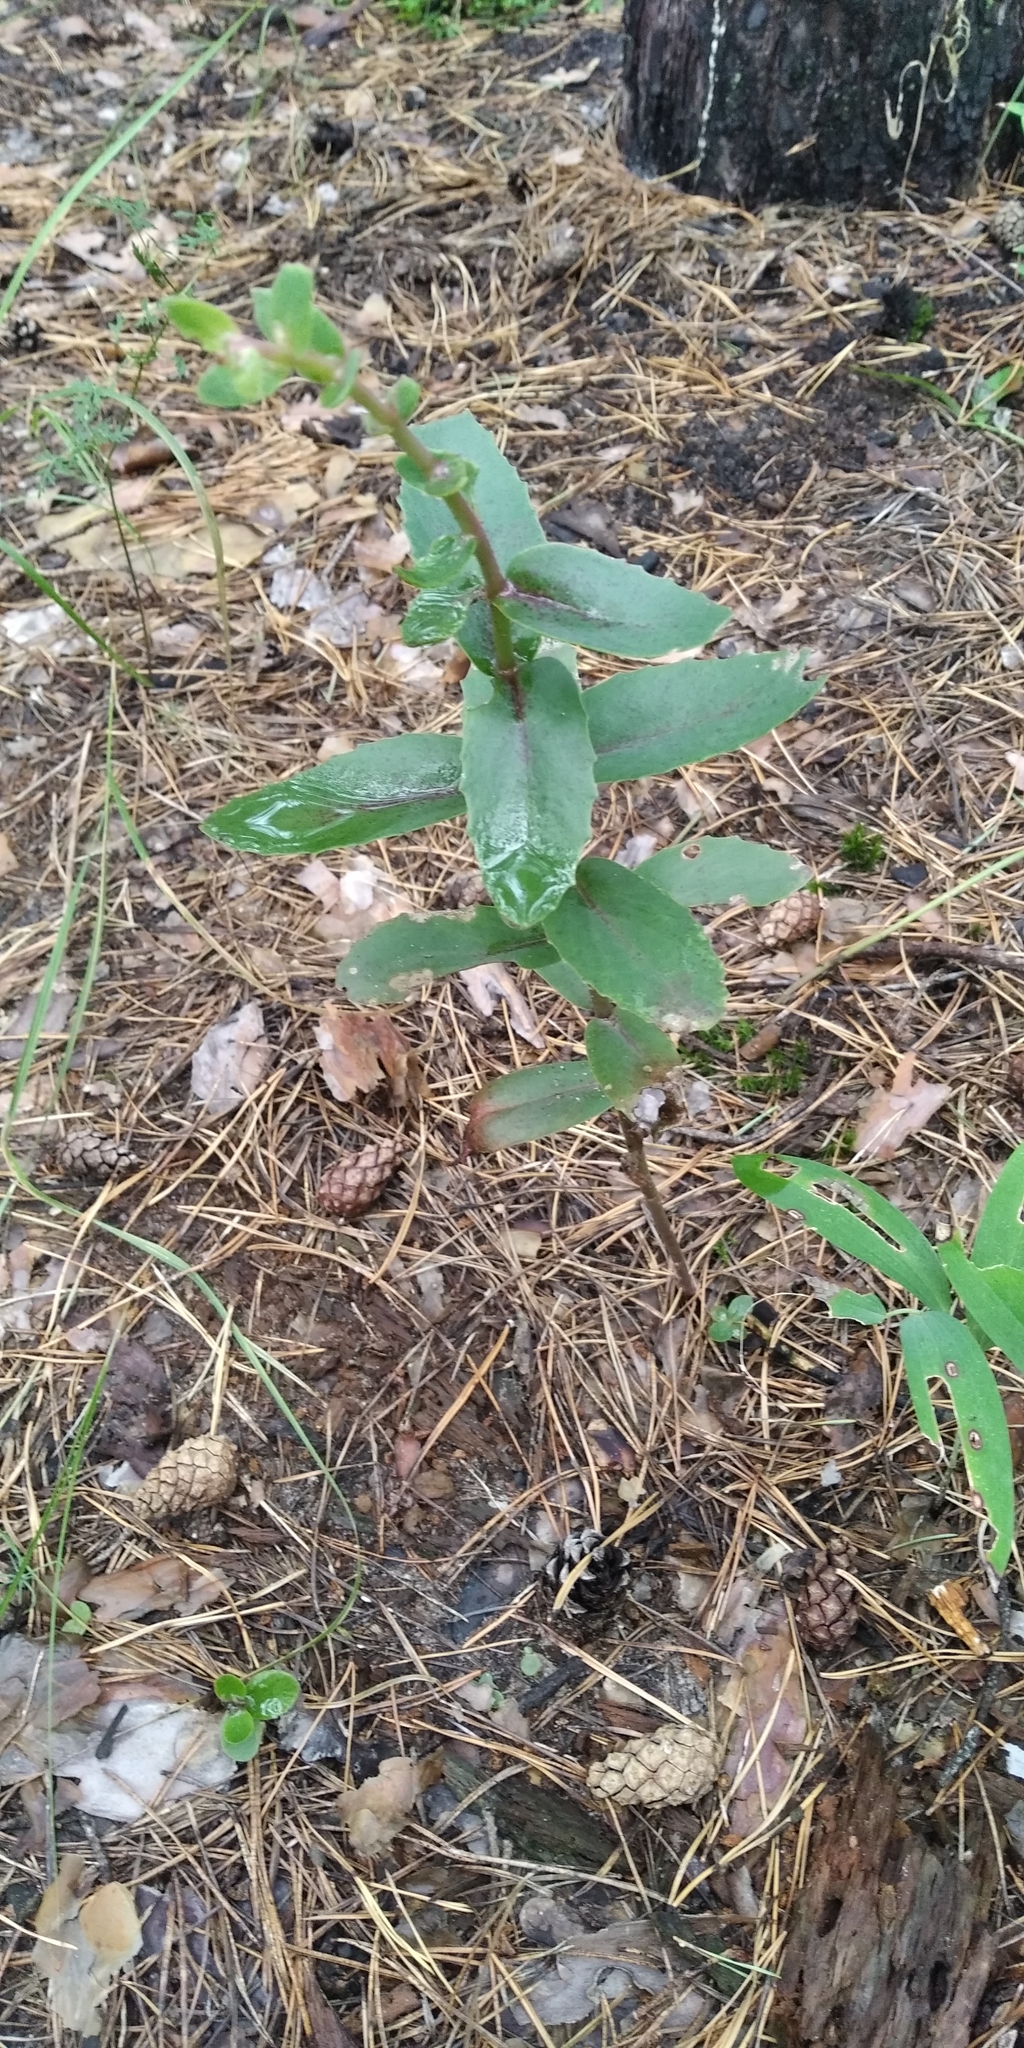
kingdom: Plantae
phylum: Tracheophyta
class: Magnoliopsida
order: Saxifragales
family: Crassulaceae
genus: Hylotelephium
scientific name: Hylotelephium maximum
